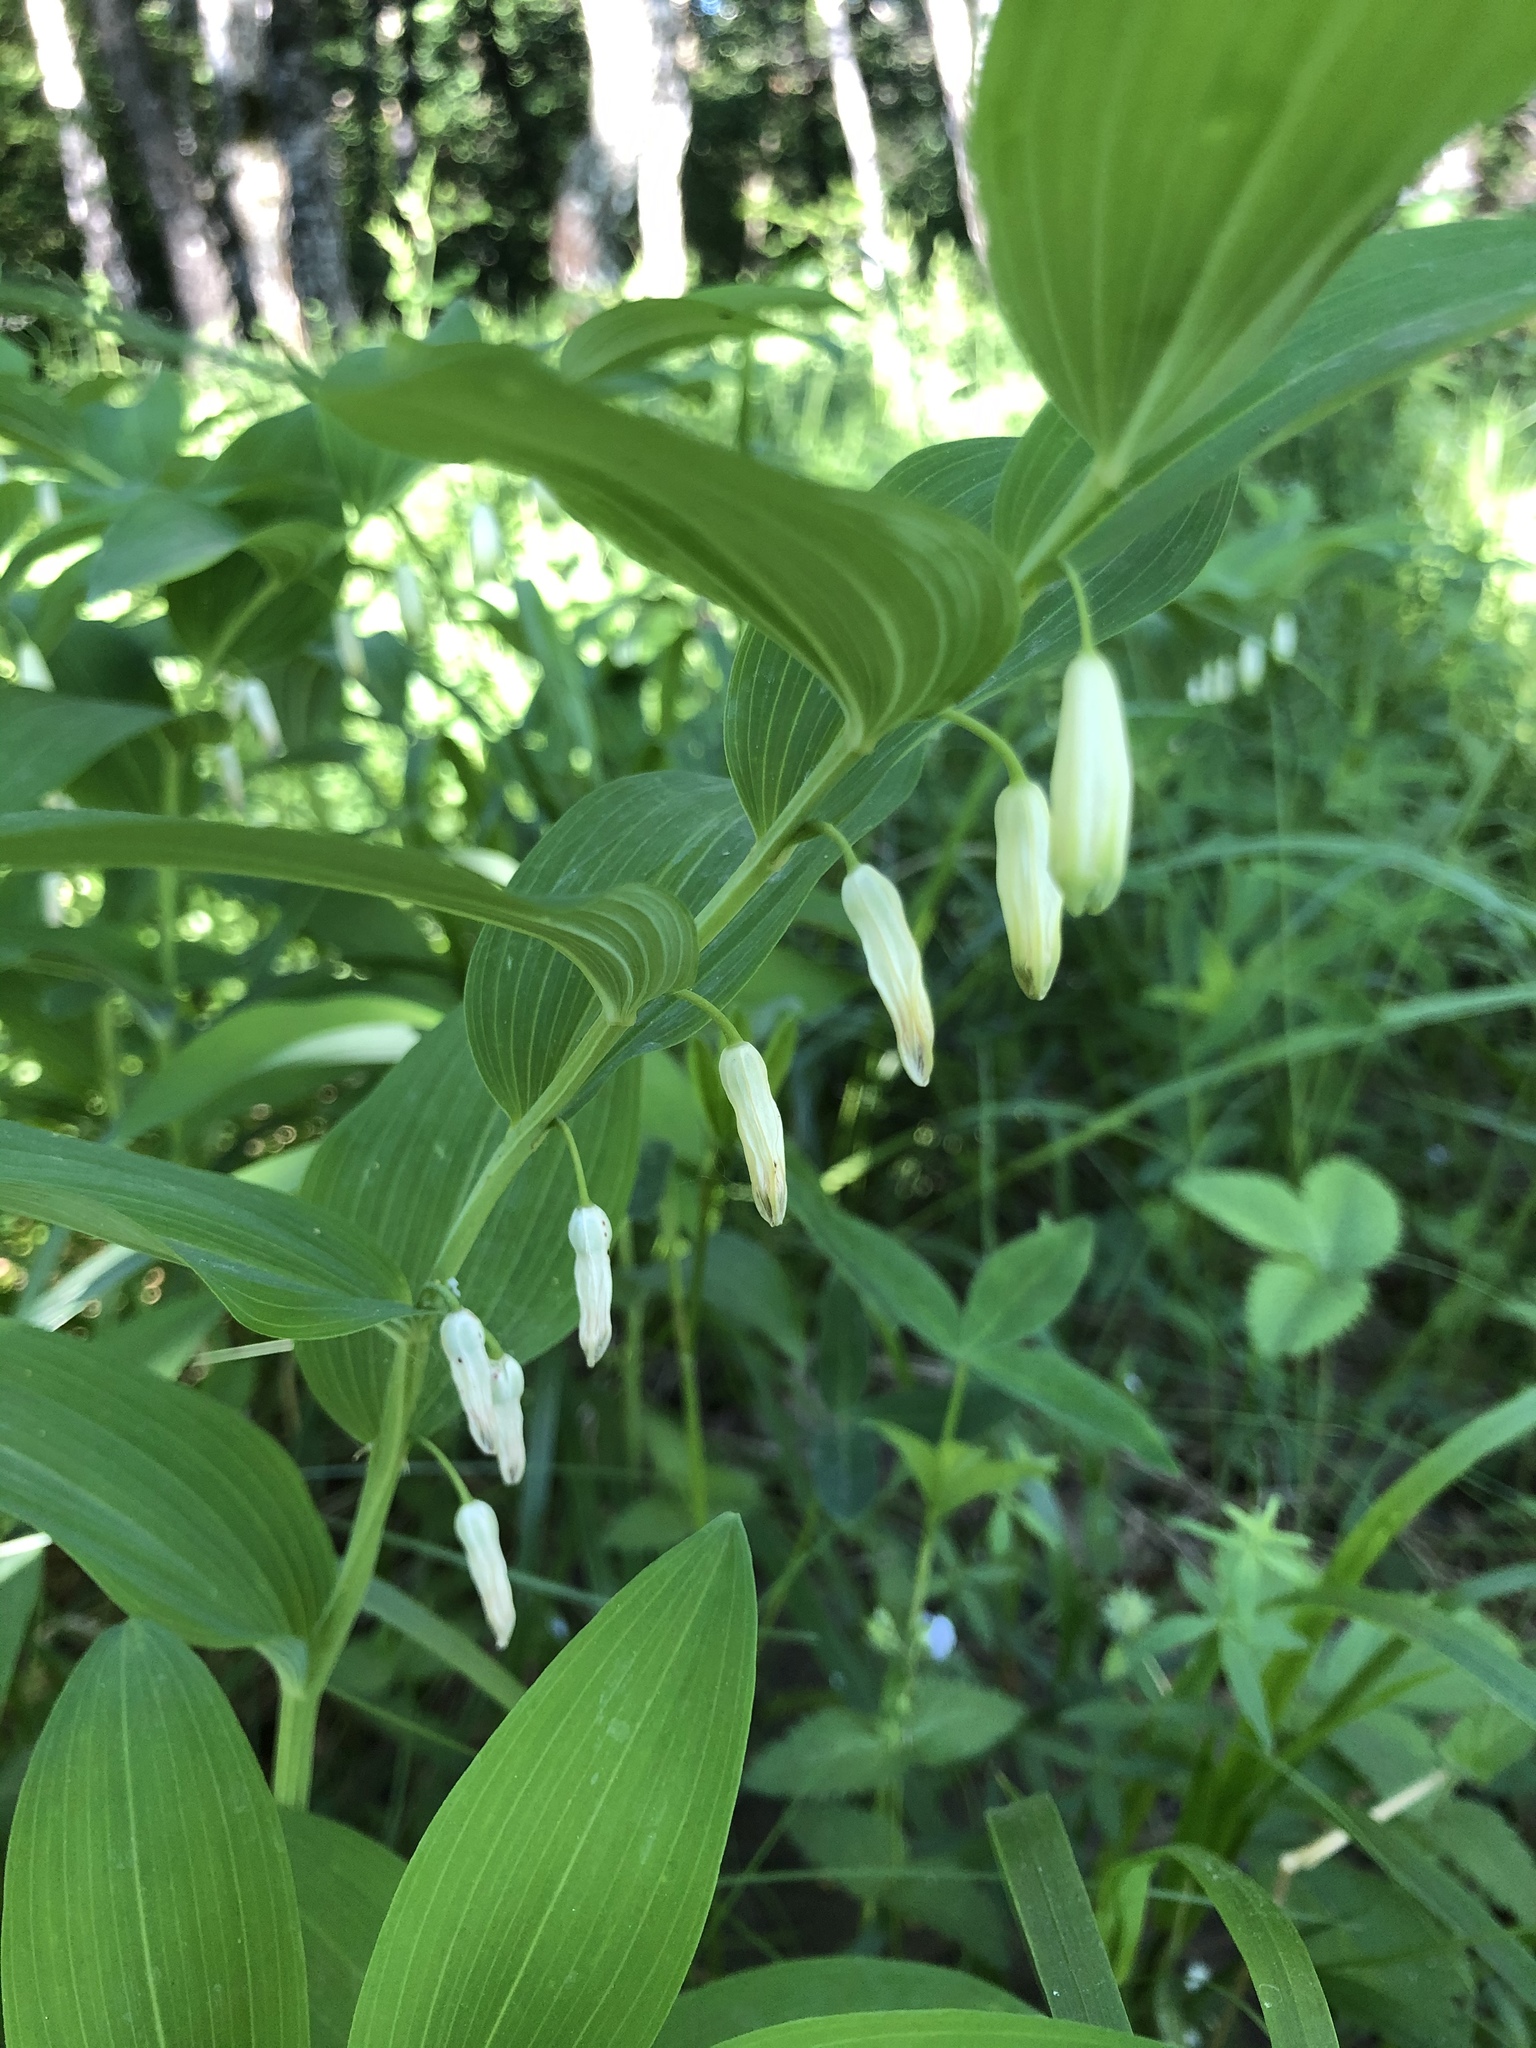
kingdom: Plantae
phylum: Tracheophyta
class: Liliopsida
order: Asparagales
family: Asparagaceae
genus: Polygonatum
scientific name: Polygonatum odoratum
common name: Angular solomon's-seal
